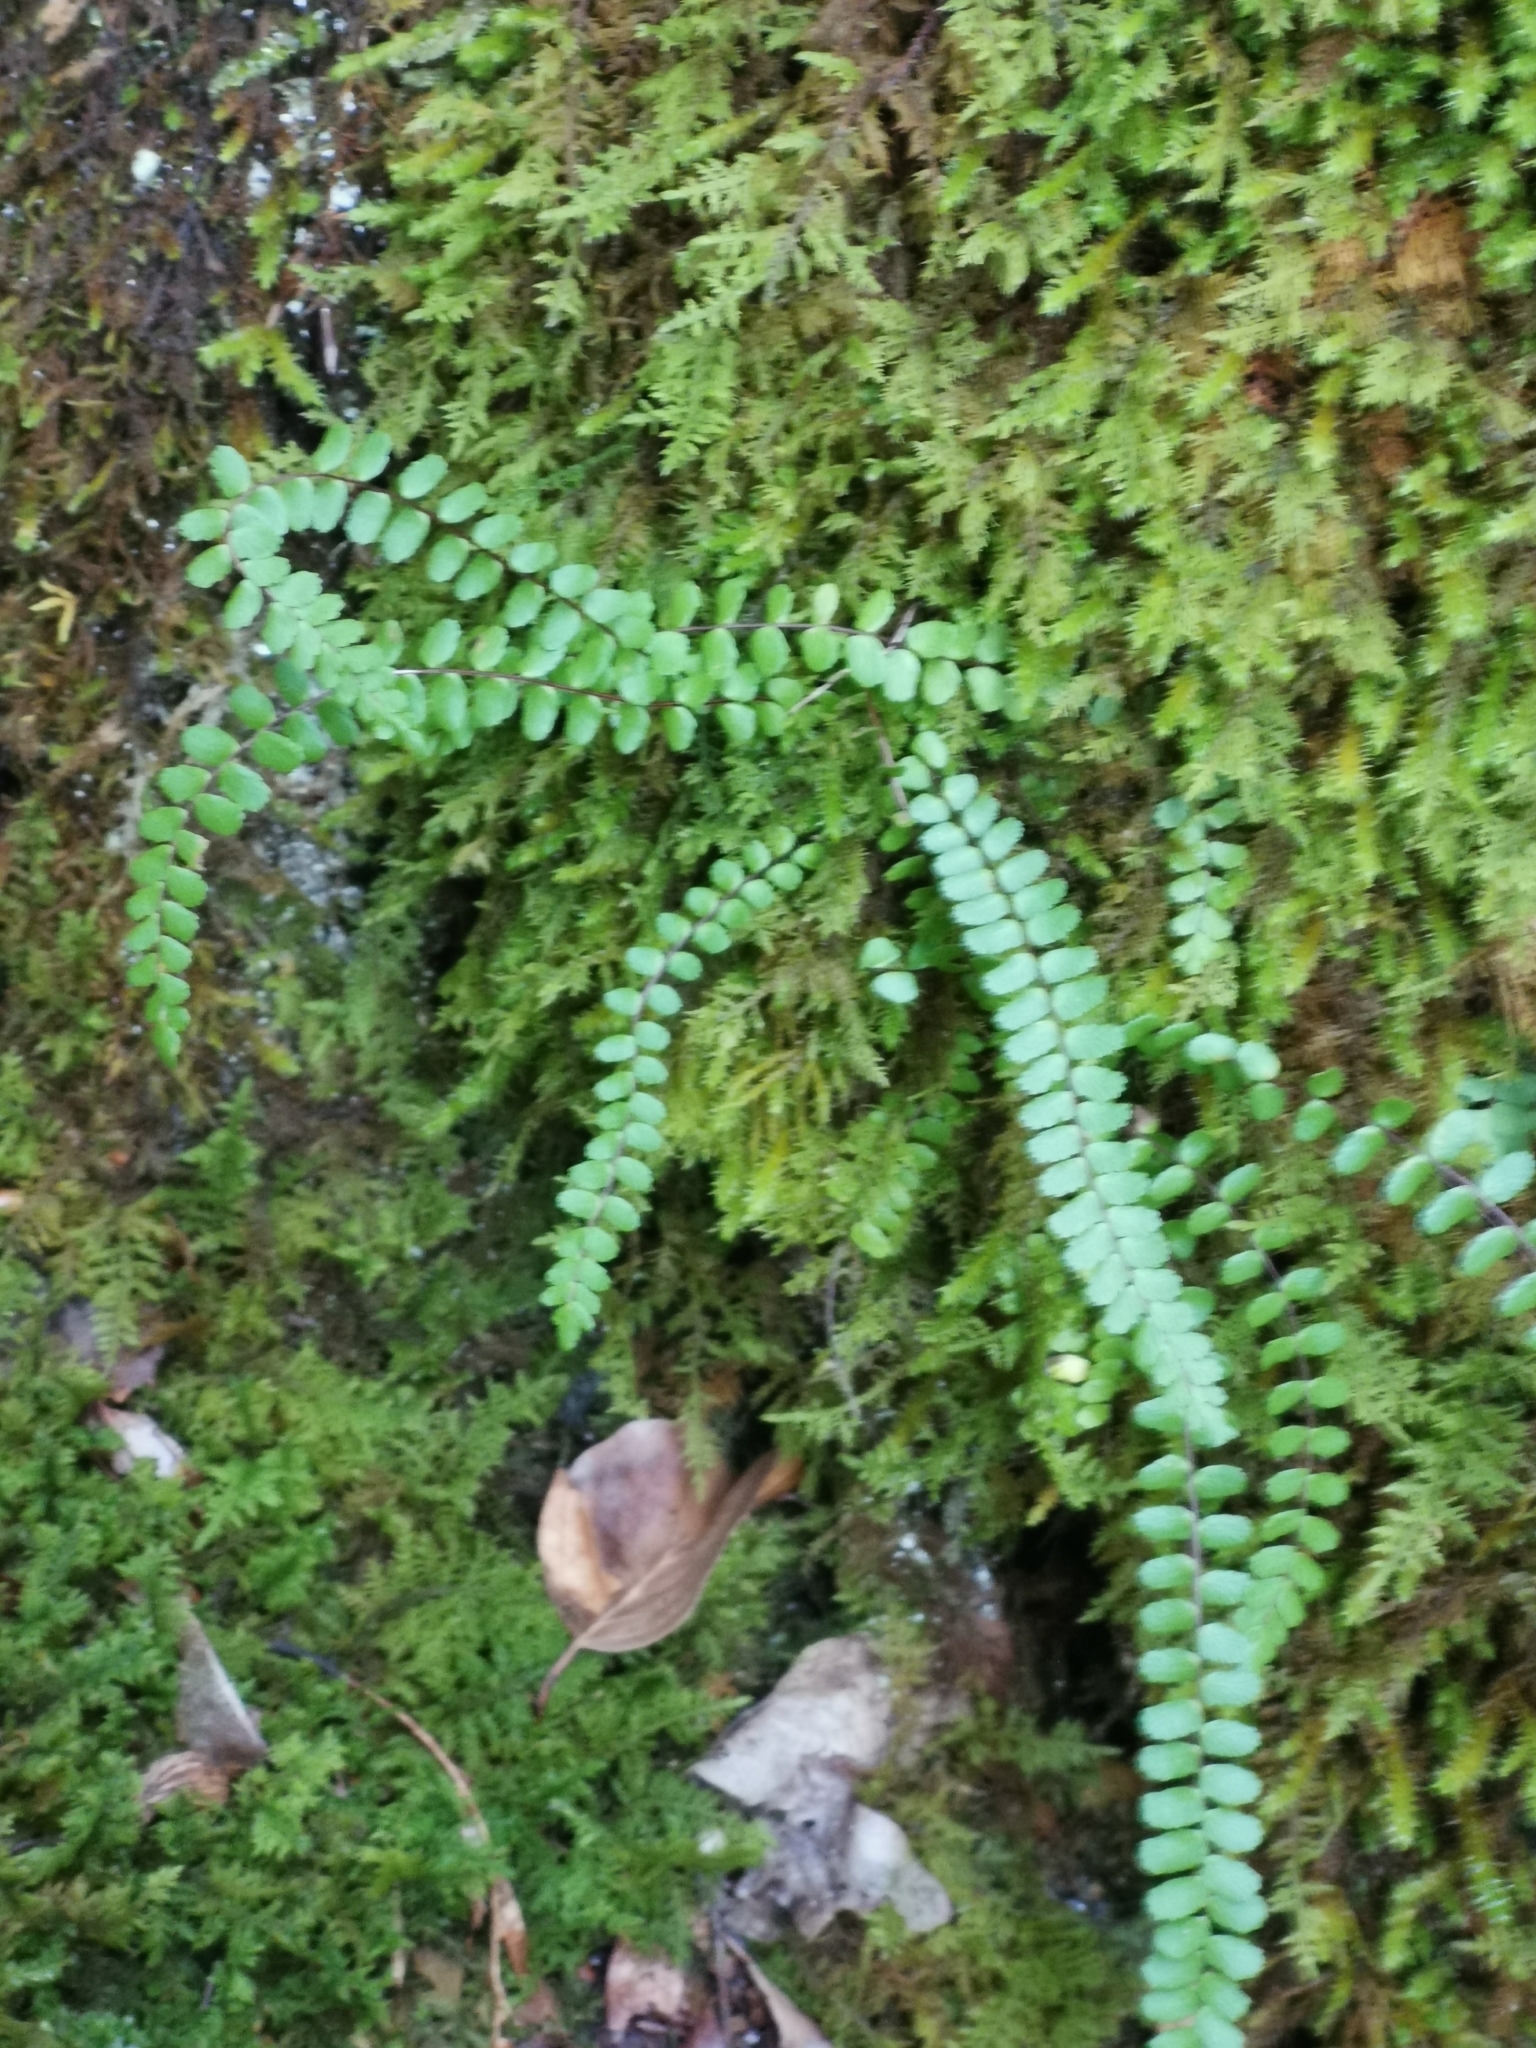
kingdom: Plantae
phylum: Tracheophyta
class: Polypodiopsida
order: Polypodiales
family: Aspleniaceae
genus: Asplenium
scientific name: Asplenium trichomanes
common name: Maidenhair spleenwort
